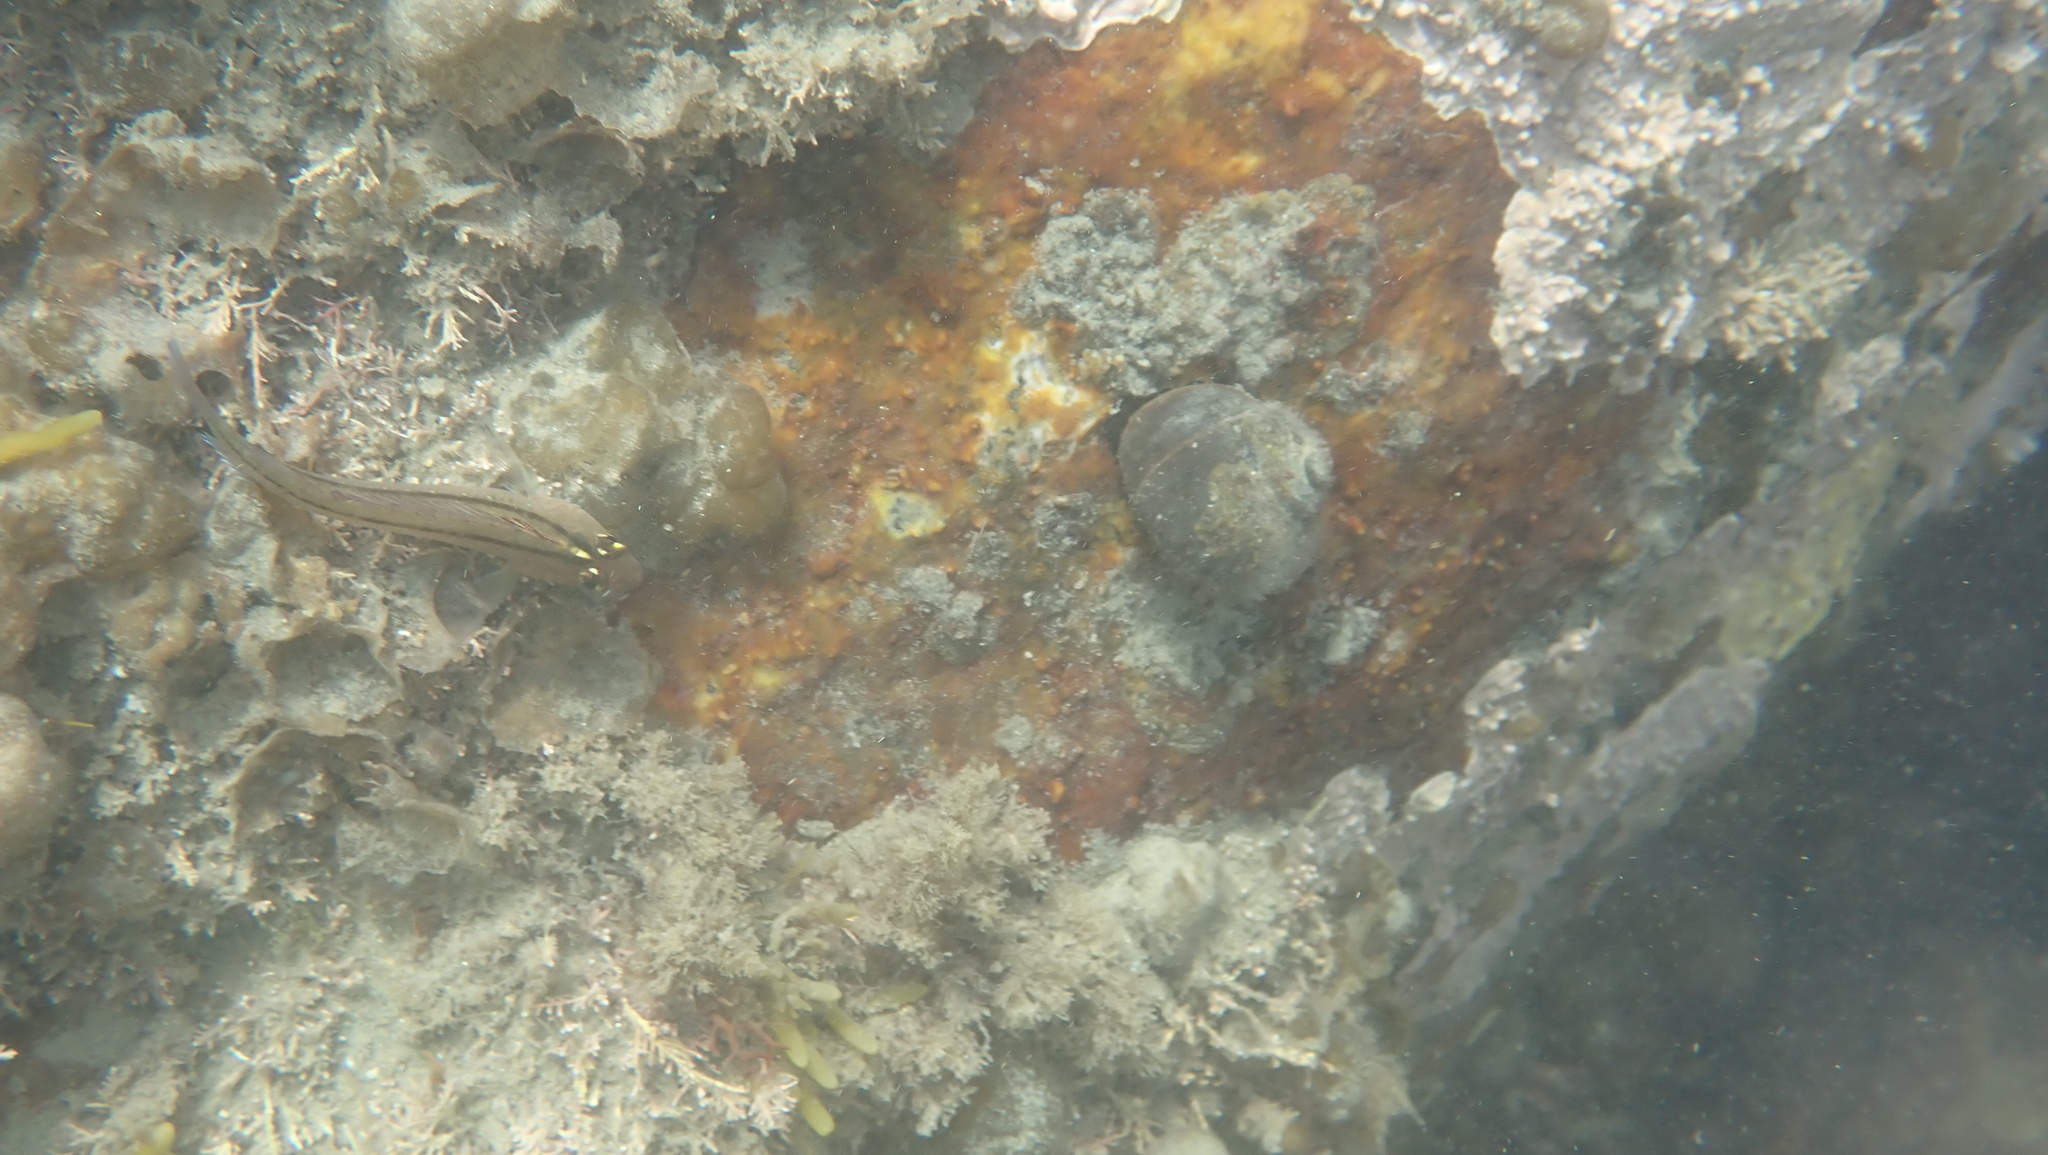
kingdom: Animalia
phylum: Chordata
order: Perciformes
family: Tripterygiidae
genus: Forsterygion
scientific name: Forsterygion lapillum
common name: Common triplefin
